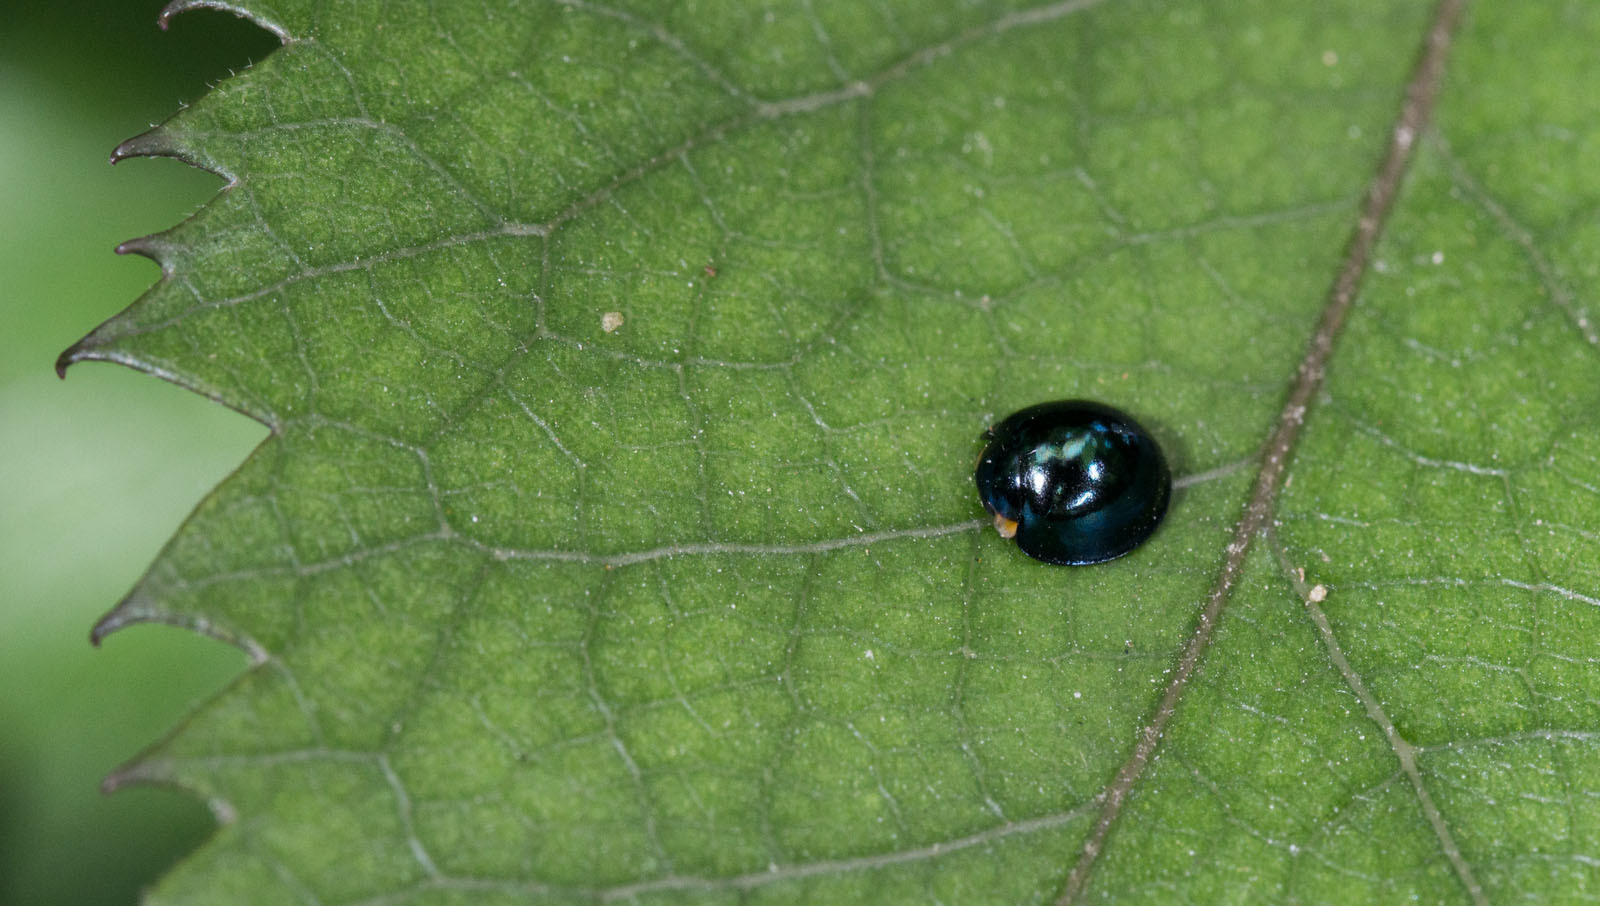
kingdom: Animalia
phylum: Arthropoda
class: Insecta
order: Coleoptera
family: Coccinellidae
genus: Halmus
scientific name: Halmus chalybeus
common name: Steel blue ladybird beetle
